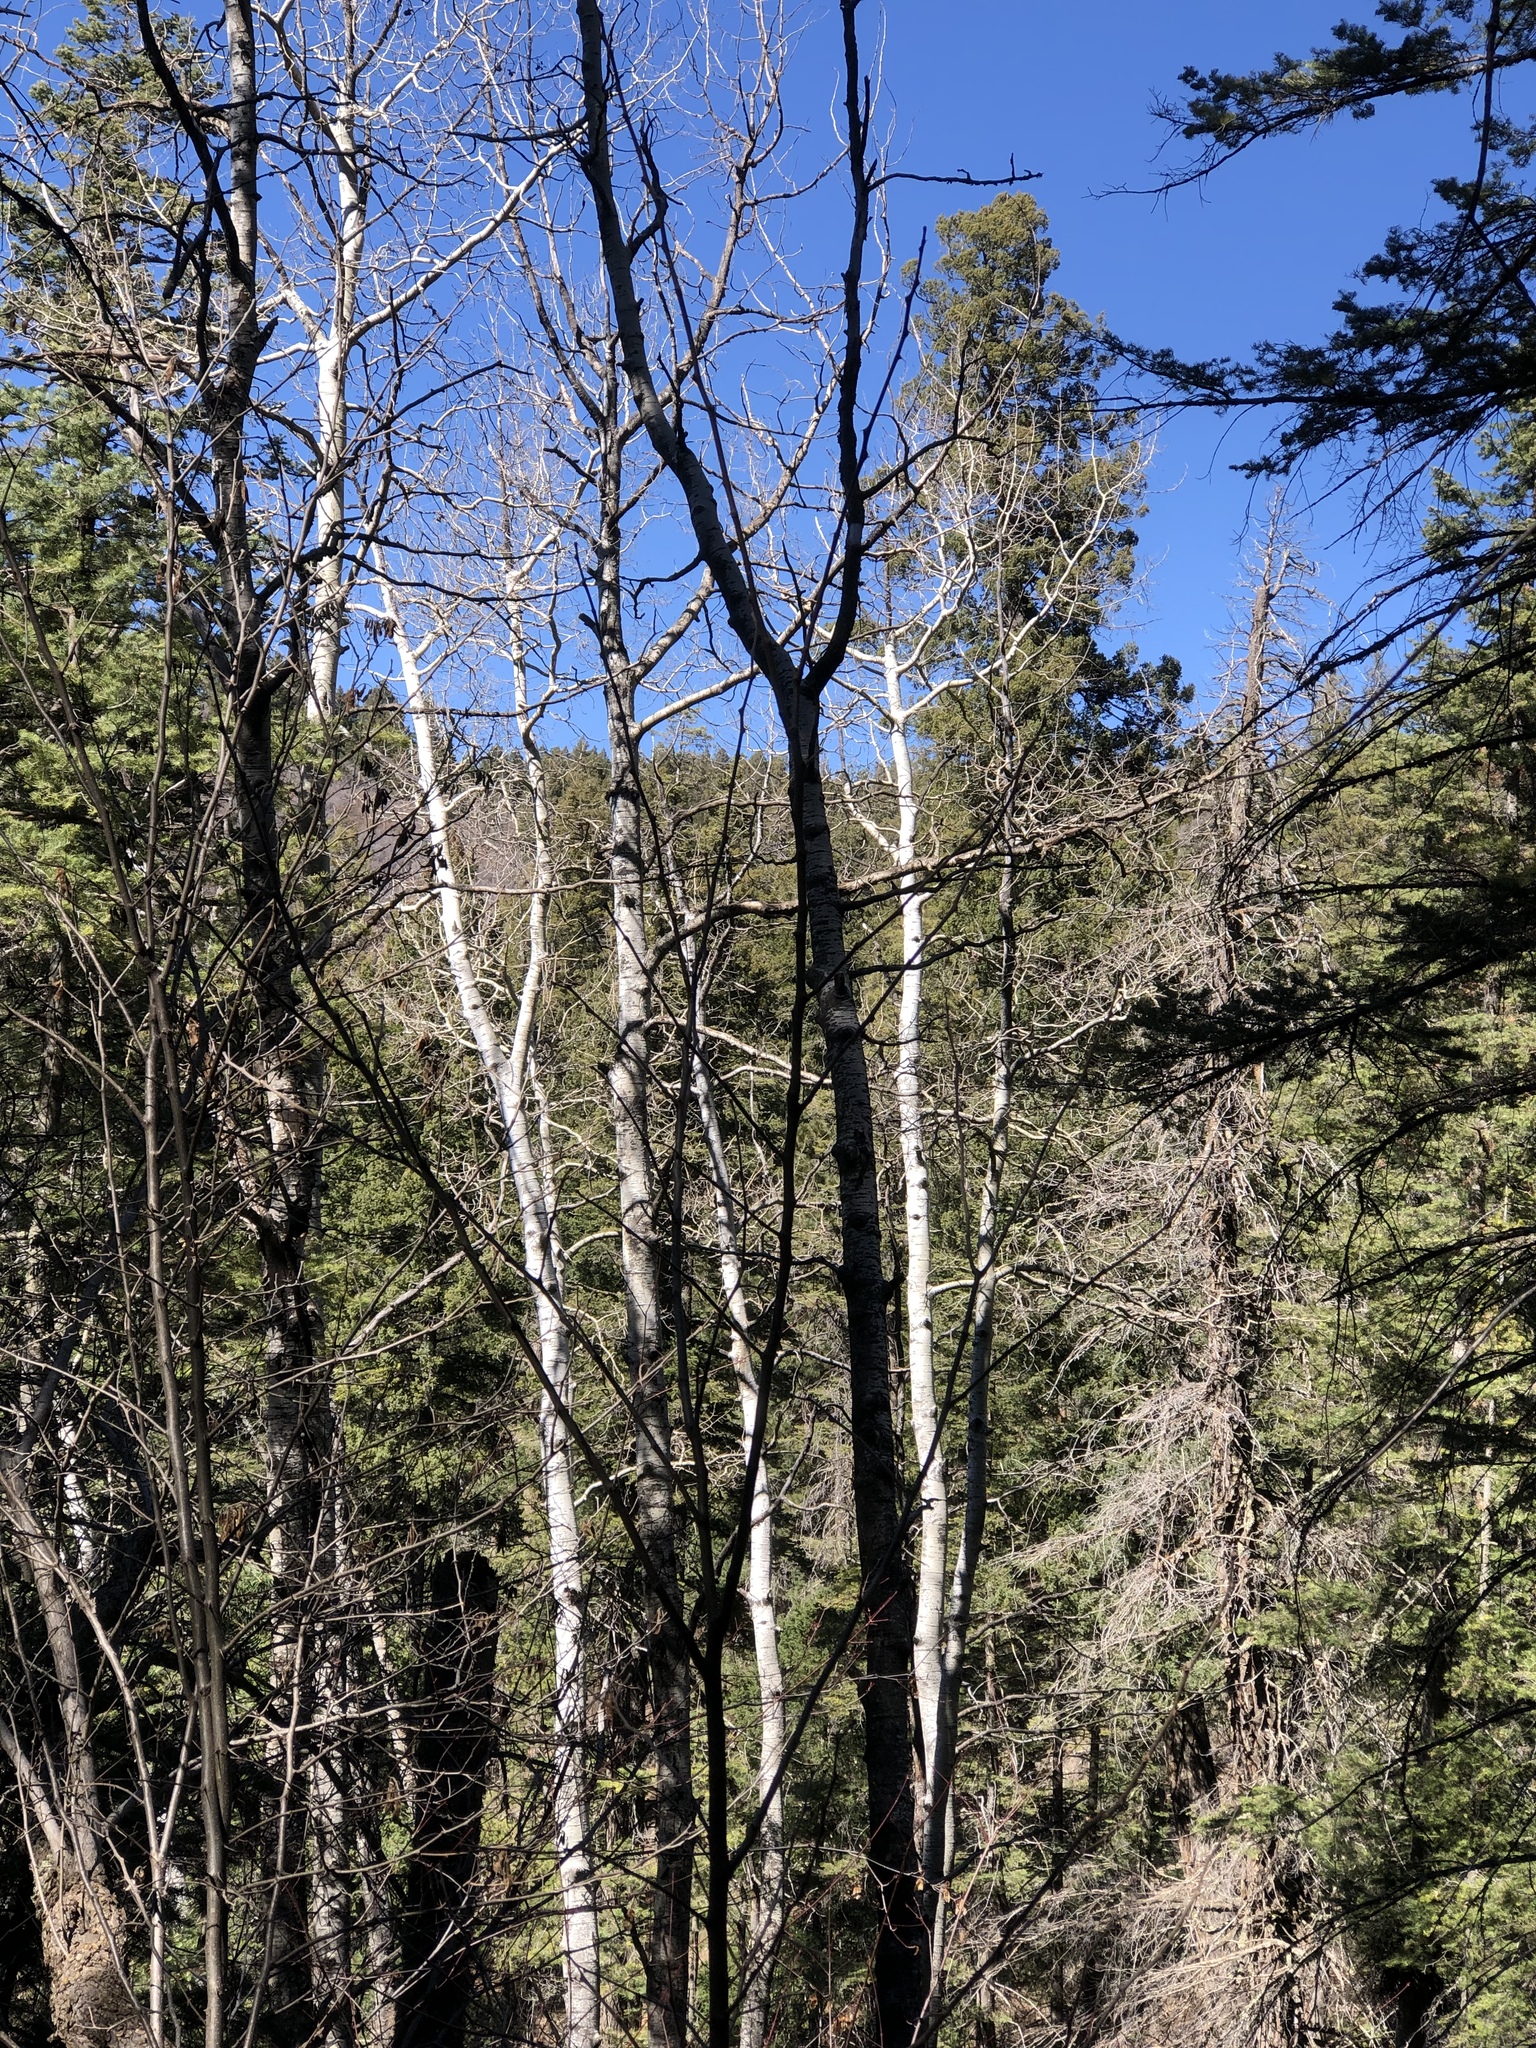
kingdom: Plantae
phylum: Tracheophyta
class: Magnoliopsida
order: Malpighiales
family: Salicaceae
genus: Populus
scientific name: Populus tremuloides
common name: Quaking aspen
